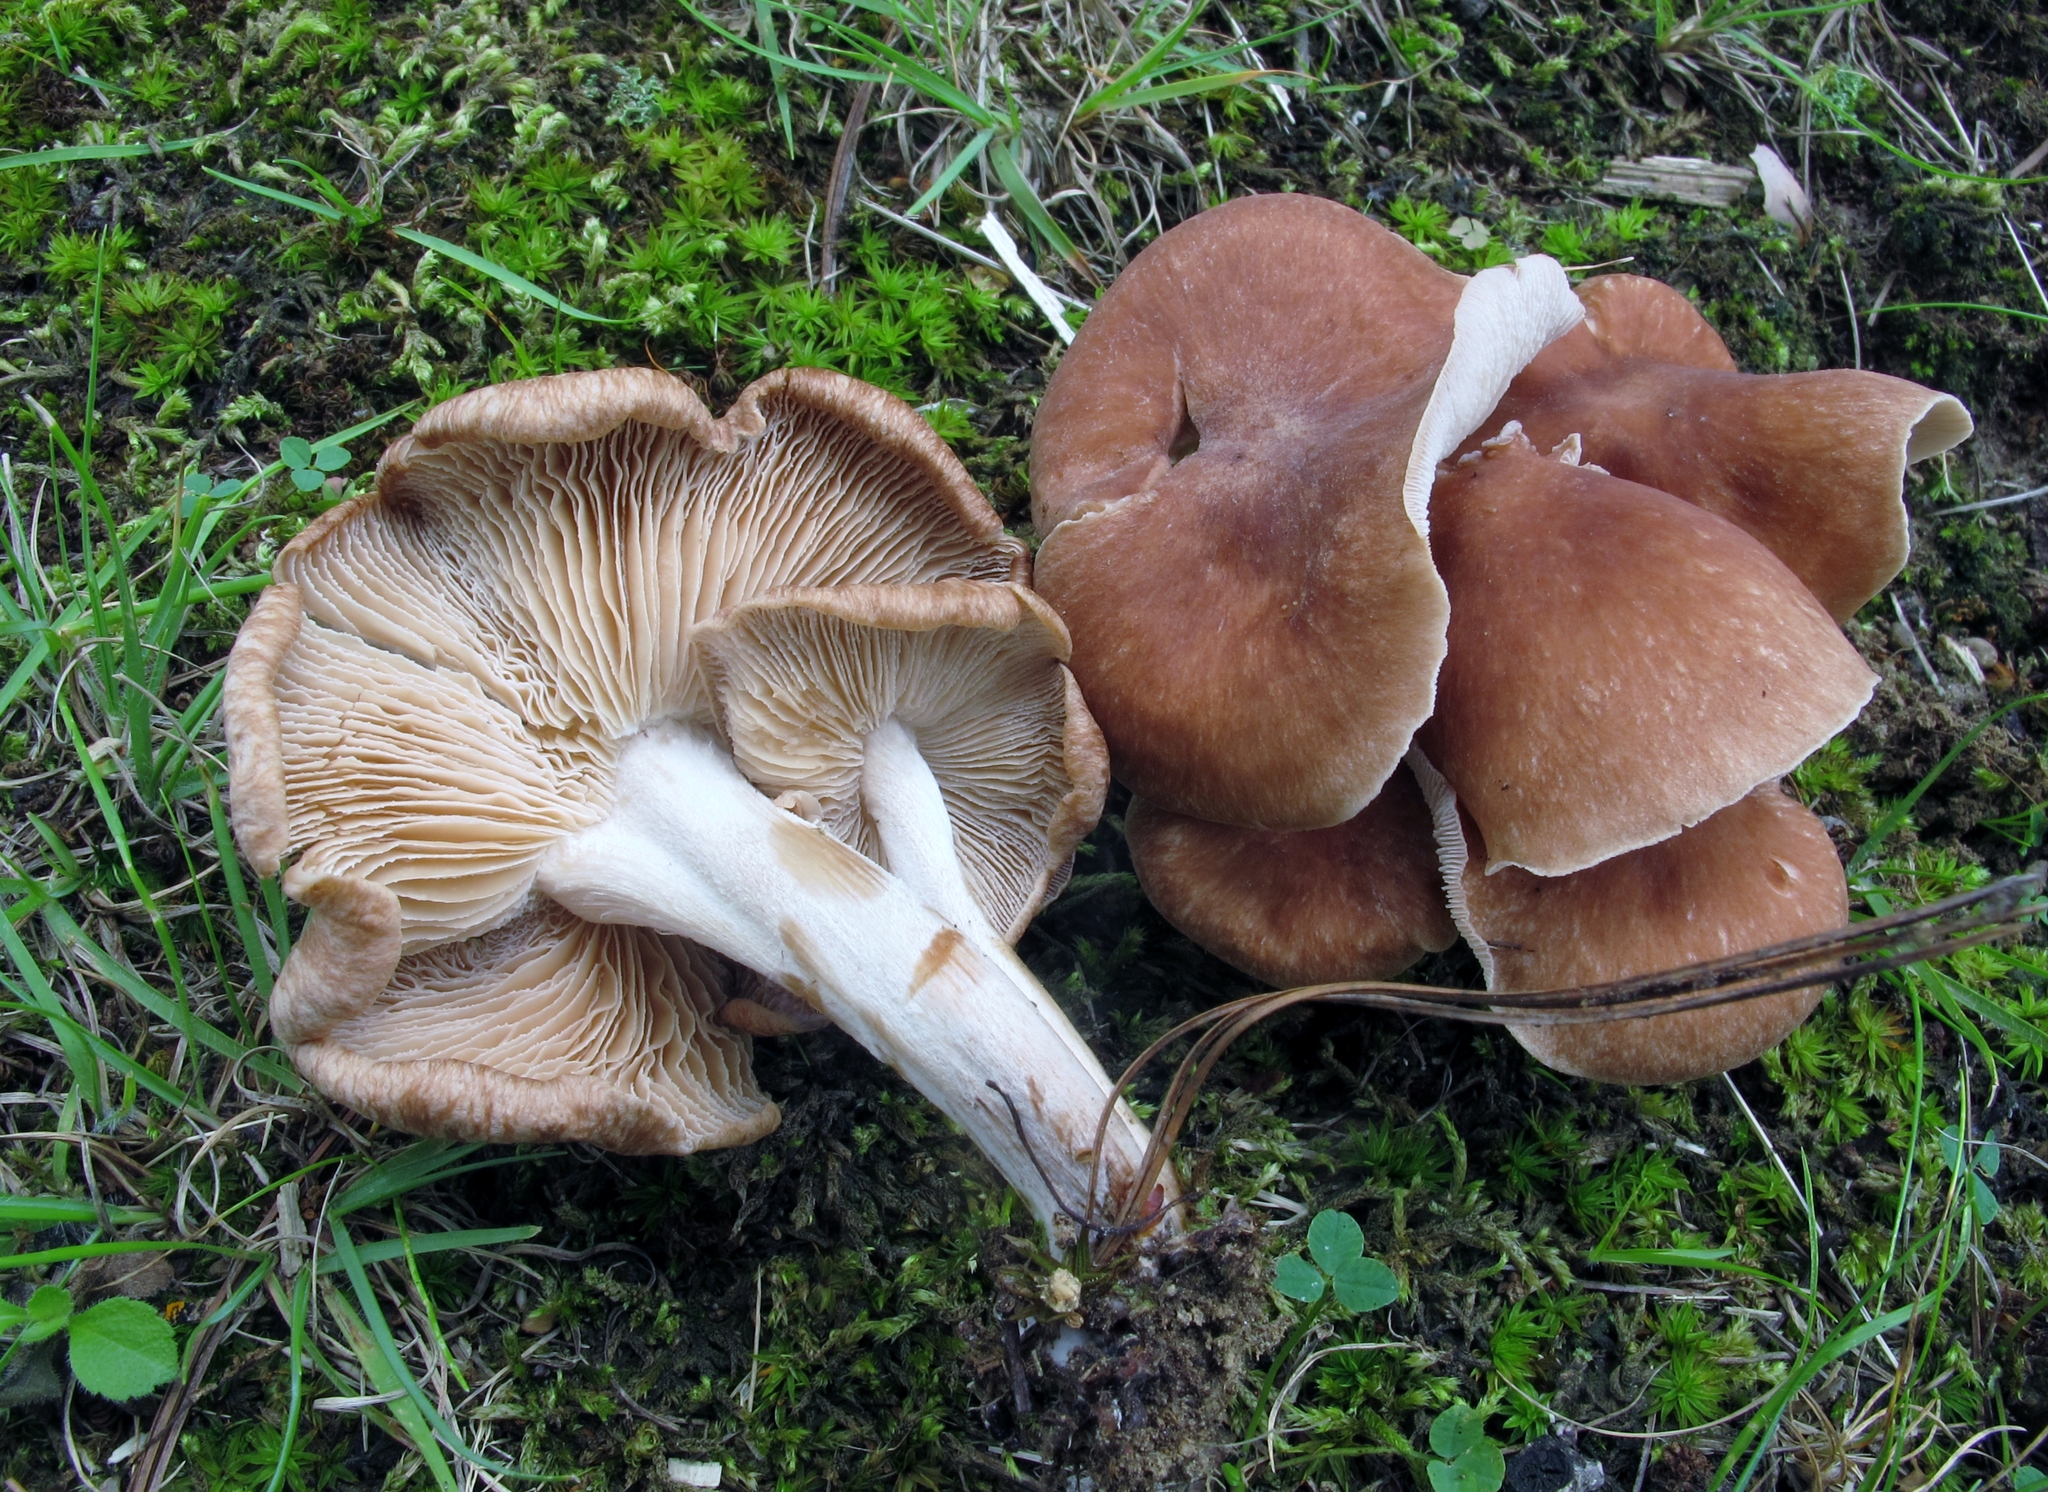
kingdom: Fungi
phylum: Basidiomycota
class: Agaricomycetes
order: Agaricales
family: Omphalotaceae
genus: Collybiopsis
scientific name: Collybiopsis luxurians
